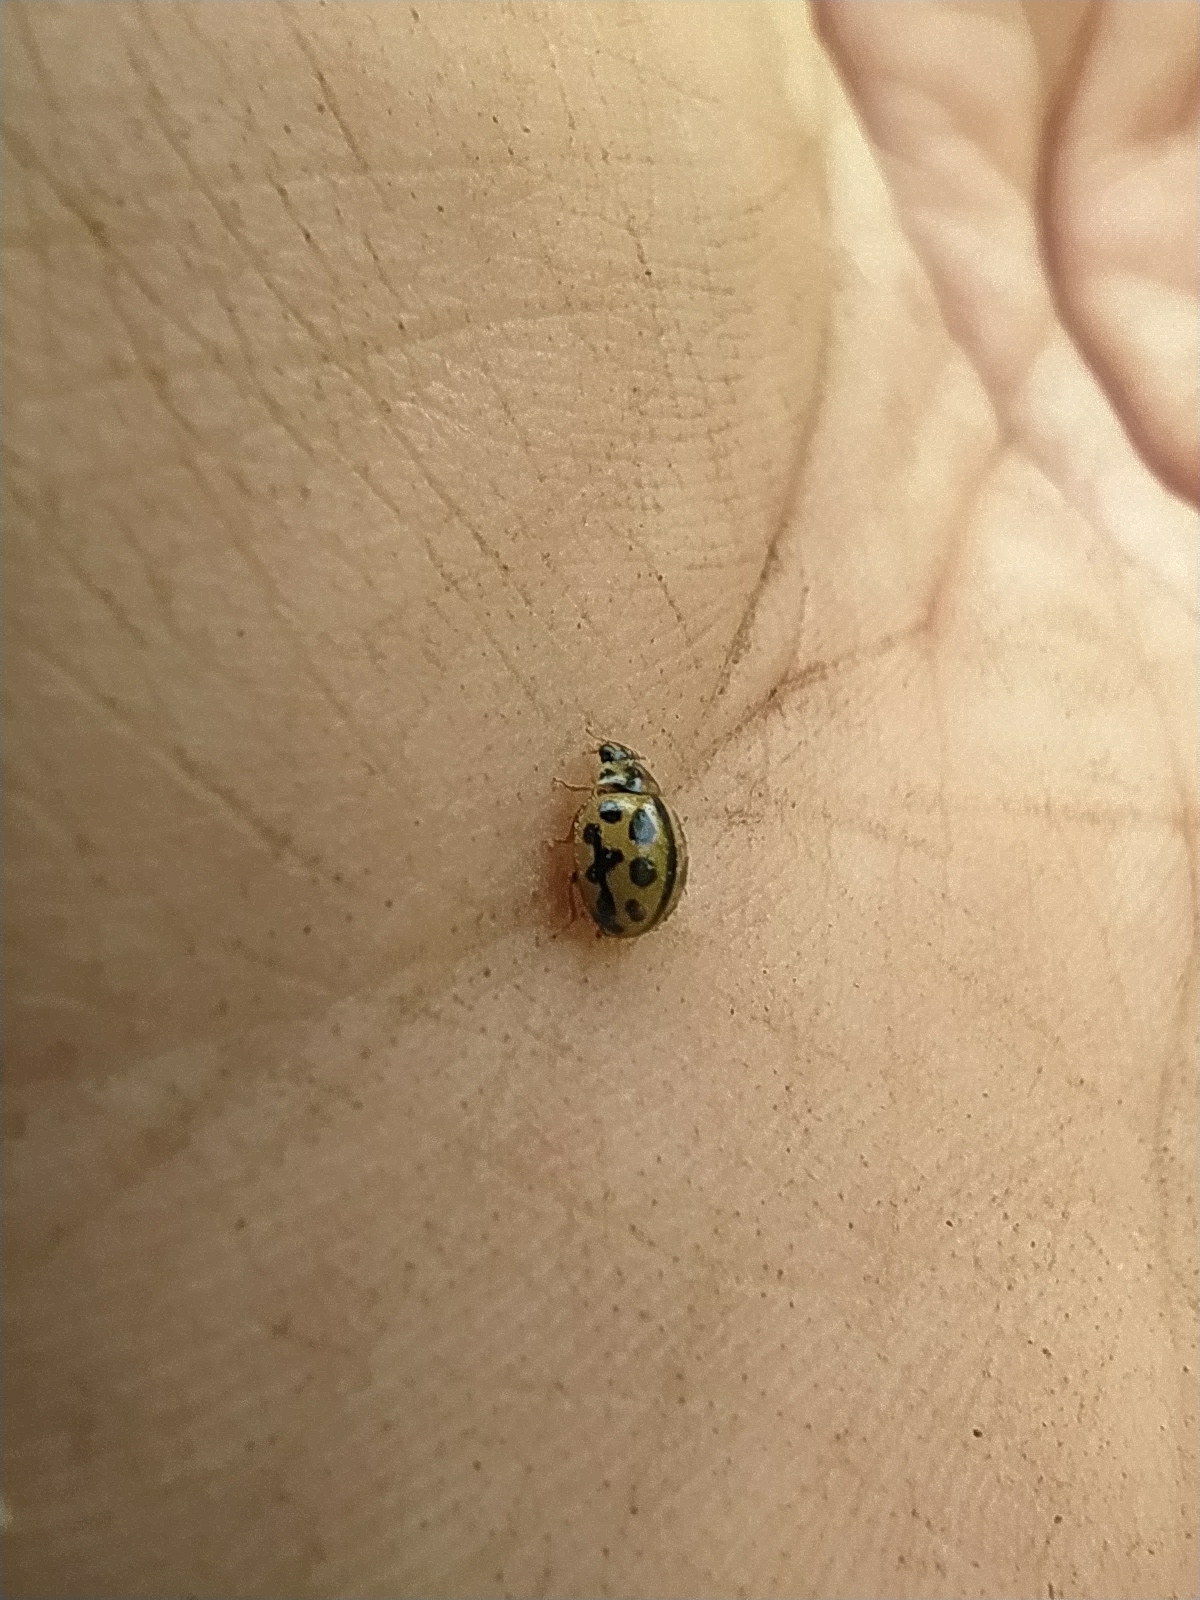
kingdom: Animalia
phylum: Arthropoda
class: Insecta
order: Coleoptera
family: Coccinellidae
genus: Tytthaspis
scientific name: Tytthaspis sedecimpunctata
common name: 16-spot ladybird
